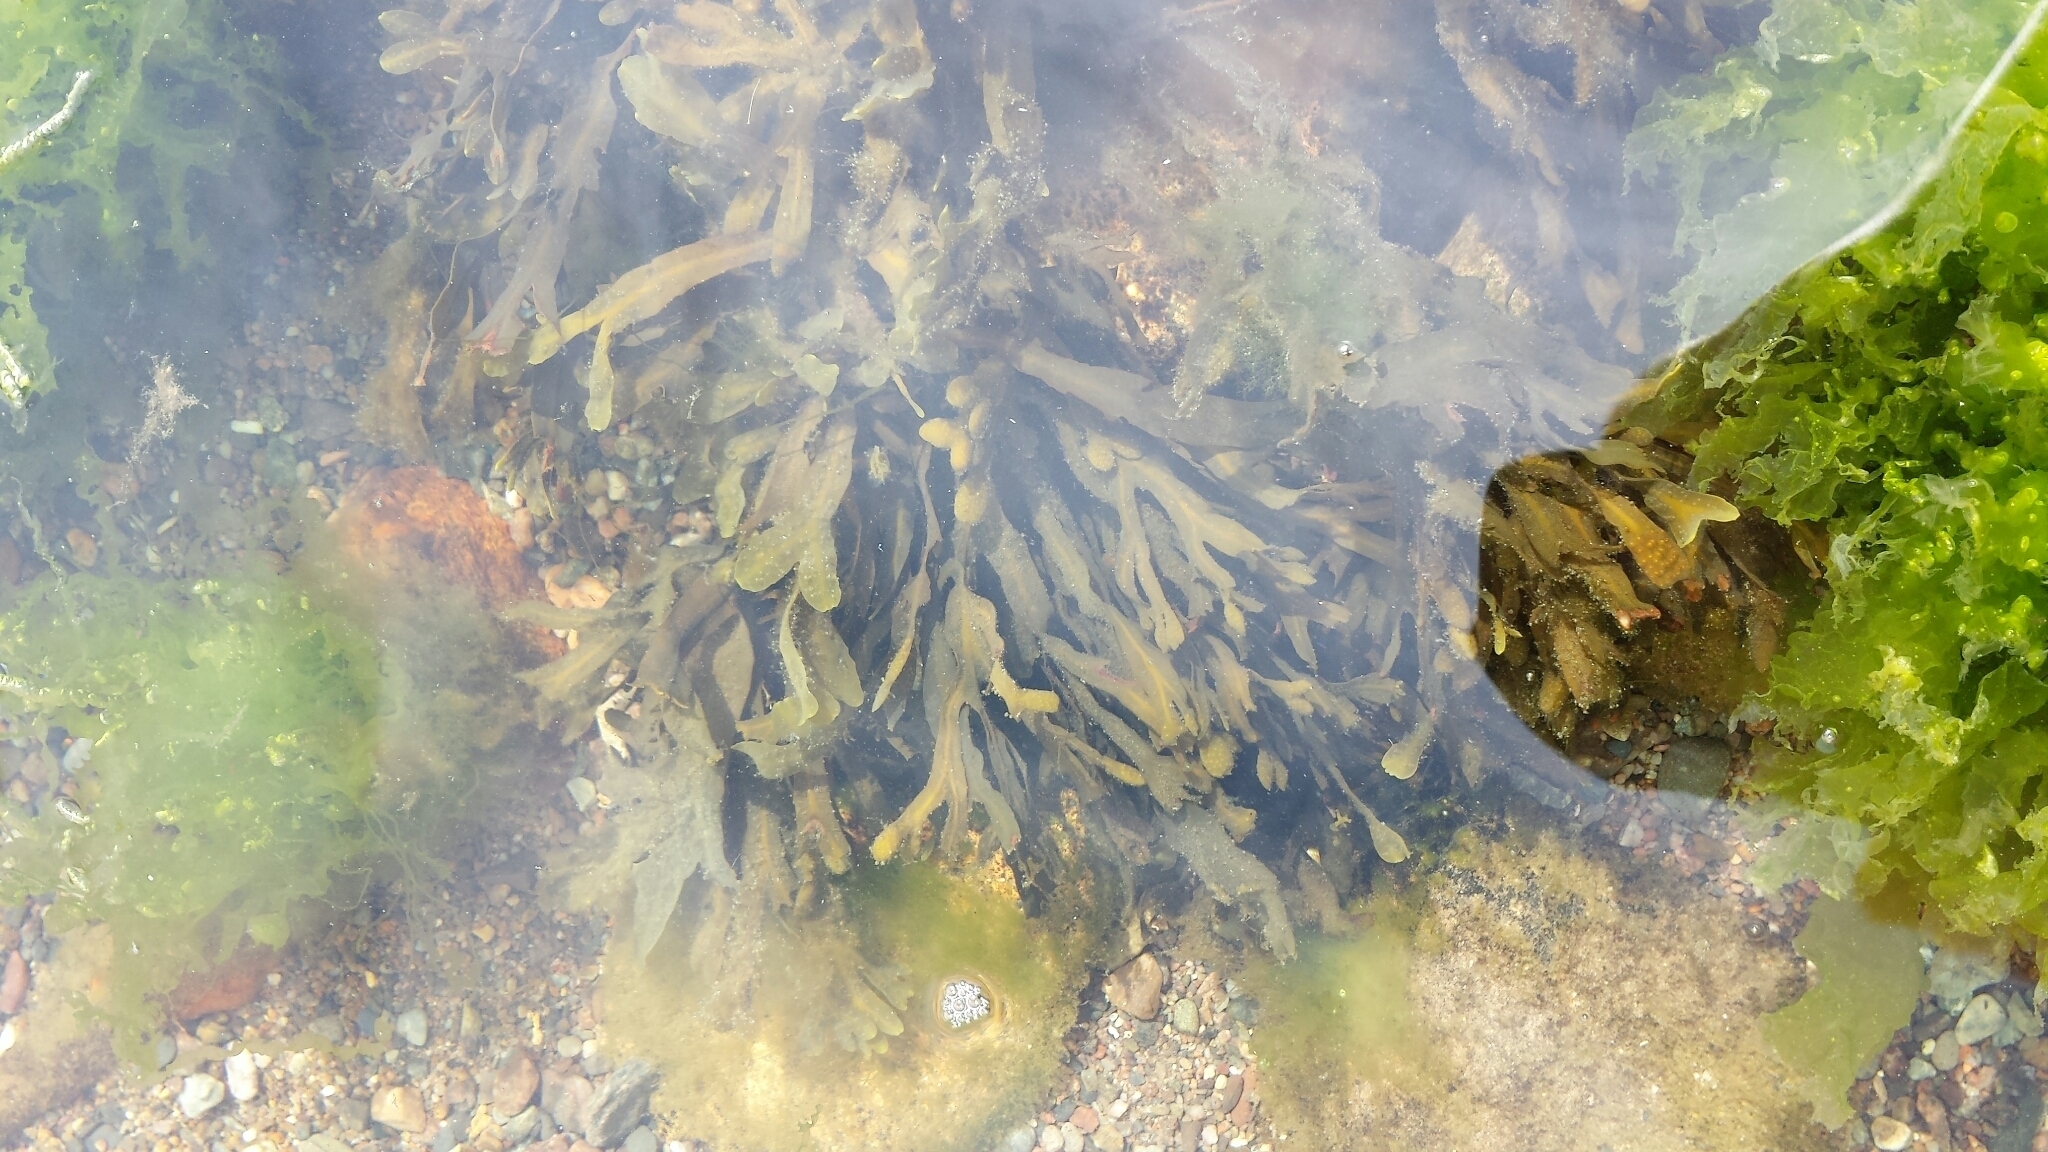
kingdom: Chromista
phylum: Ochrophyta
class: Phaeophyceae
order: Fucales
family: Fucaceae
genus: Fucus
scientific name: Fucus distichus
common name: Rockweed
